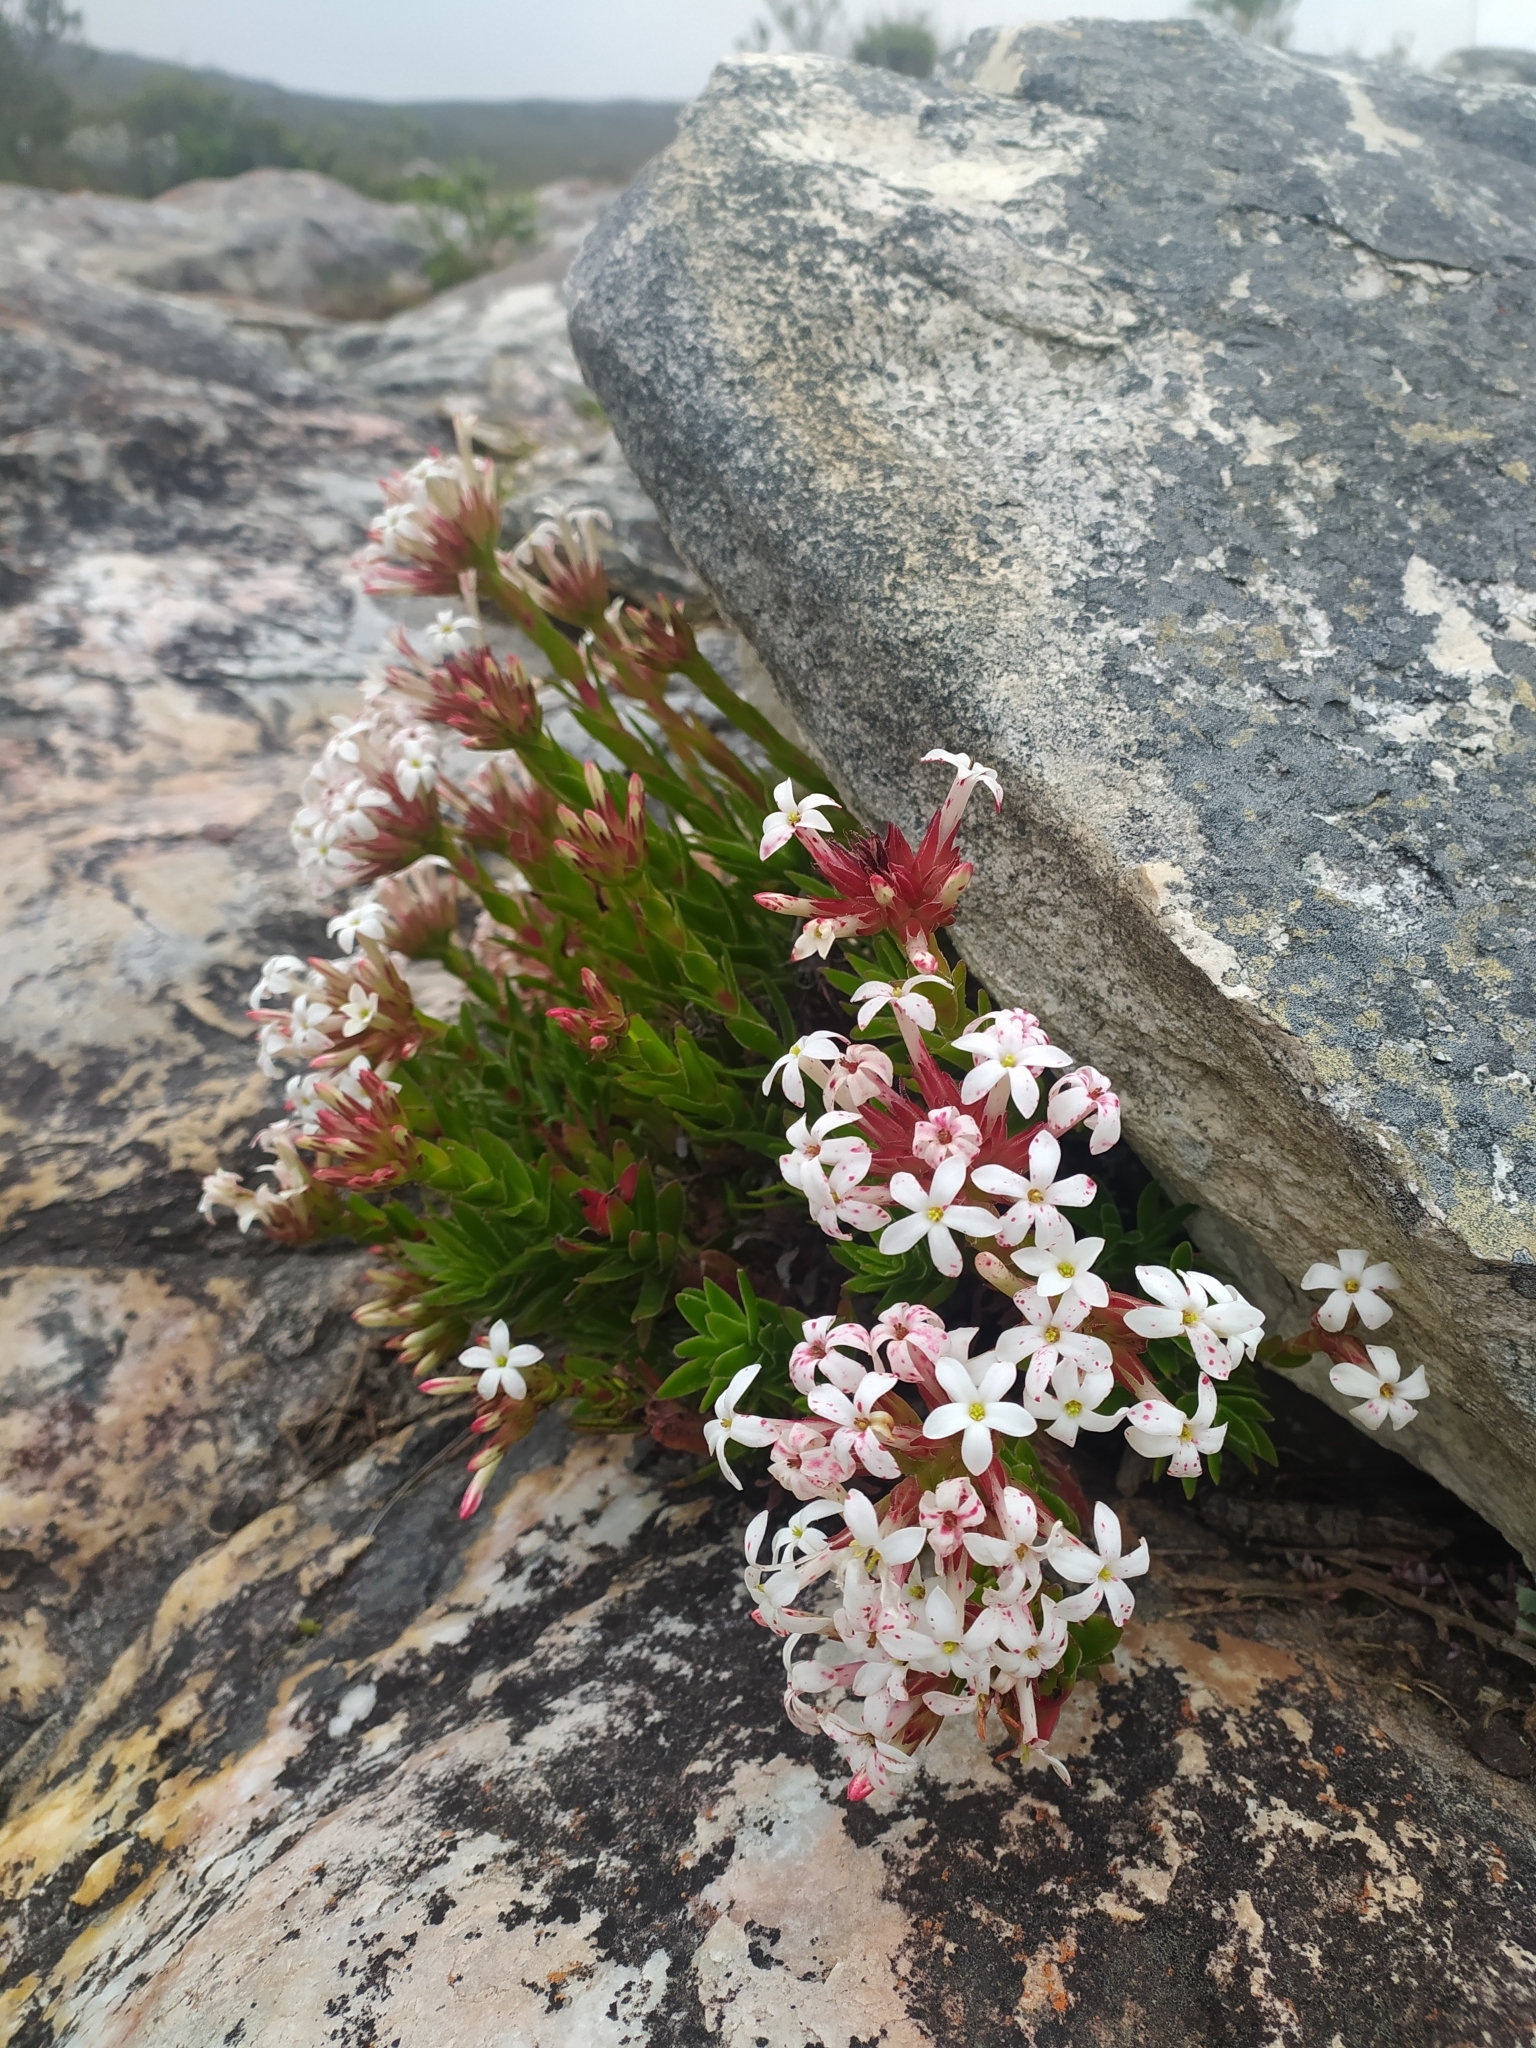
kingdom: Plantae
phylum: Tracheophyta
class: Magnoliopsida
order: Saxifragales
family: Crassulaceae
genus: Crassula
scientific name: Crassula fascicularis
